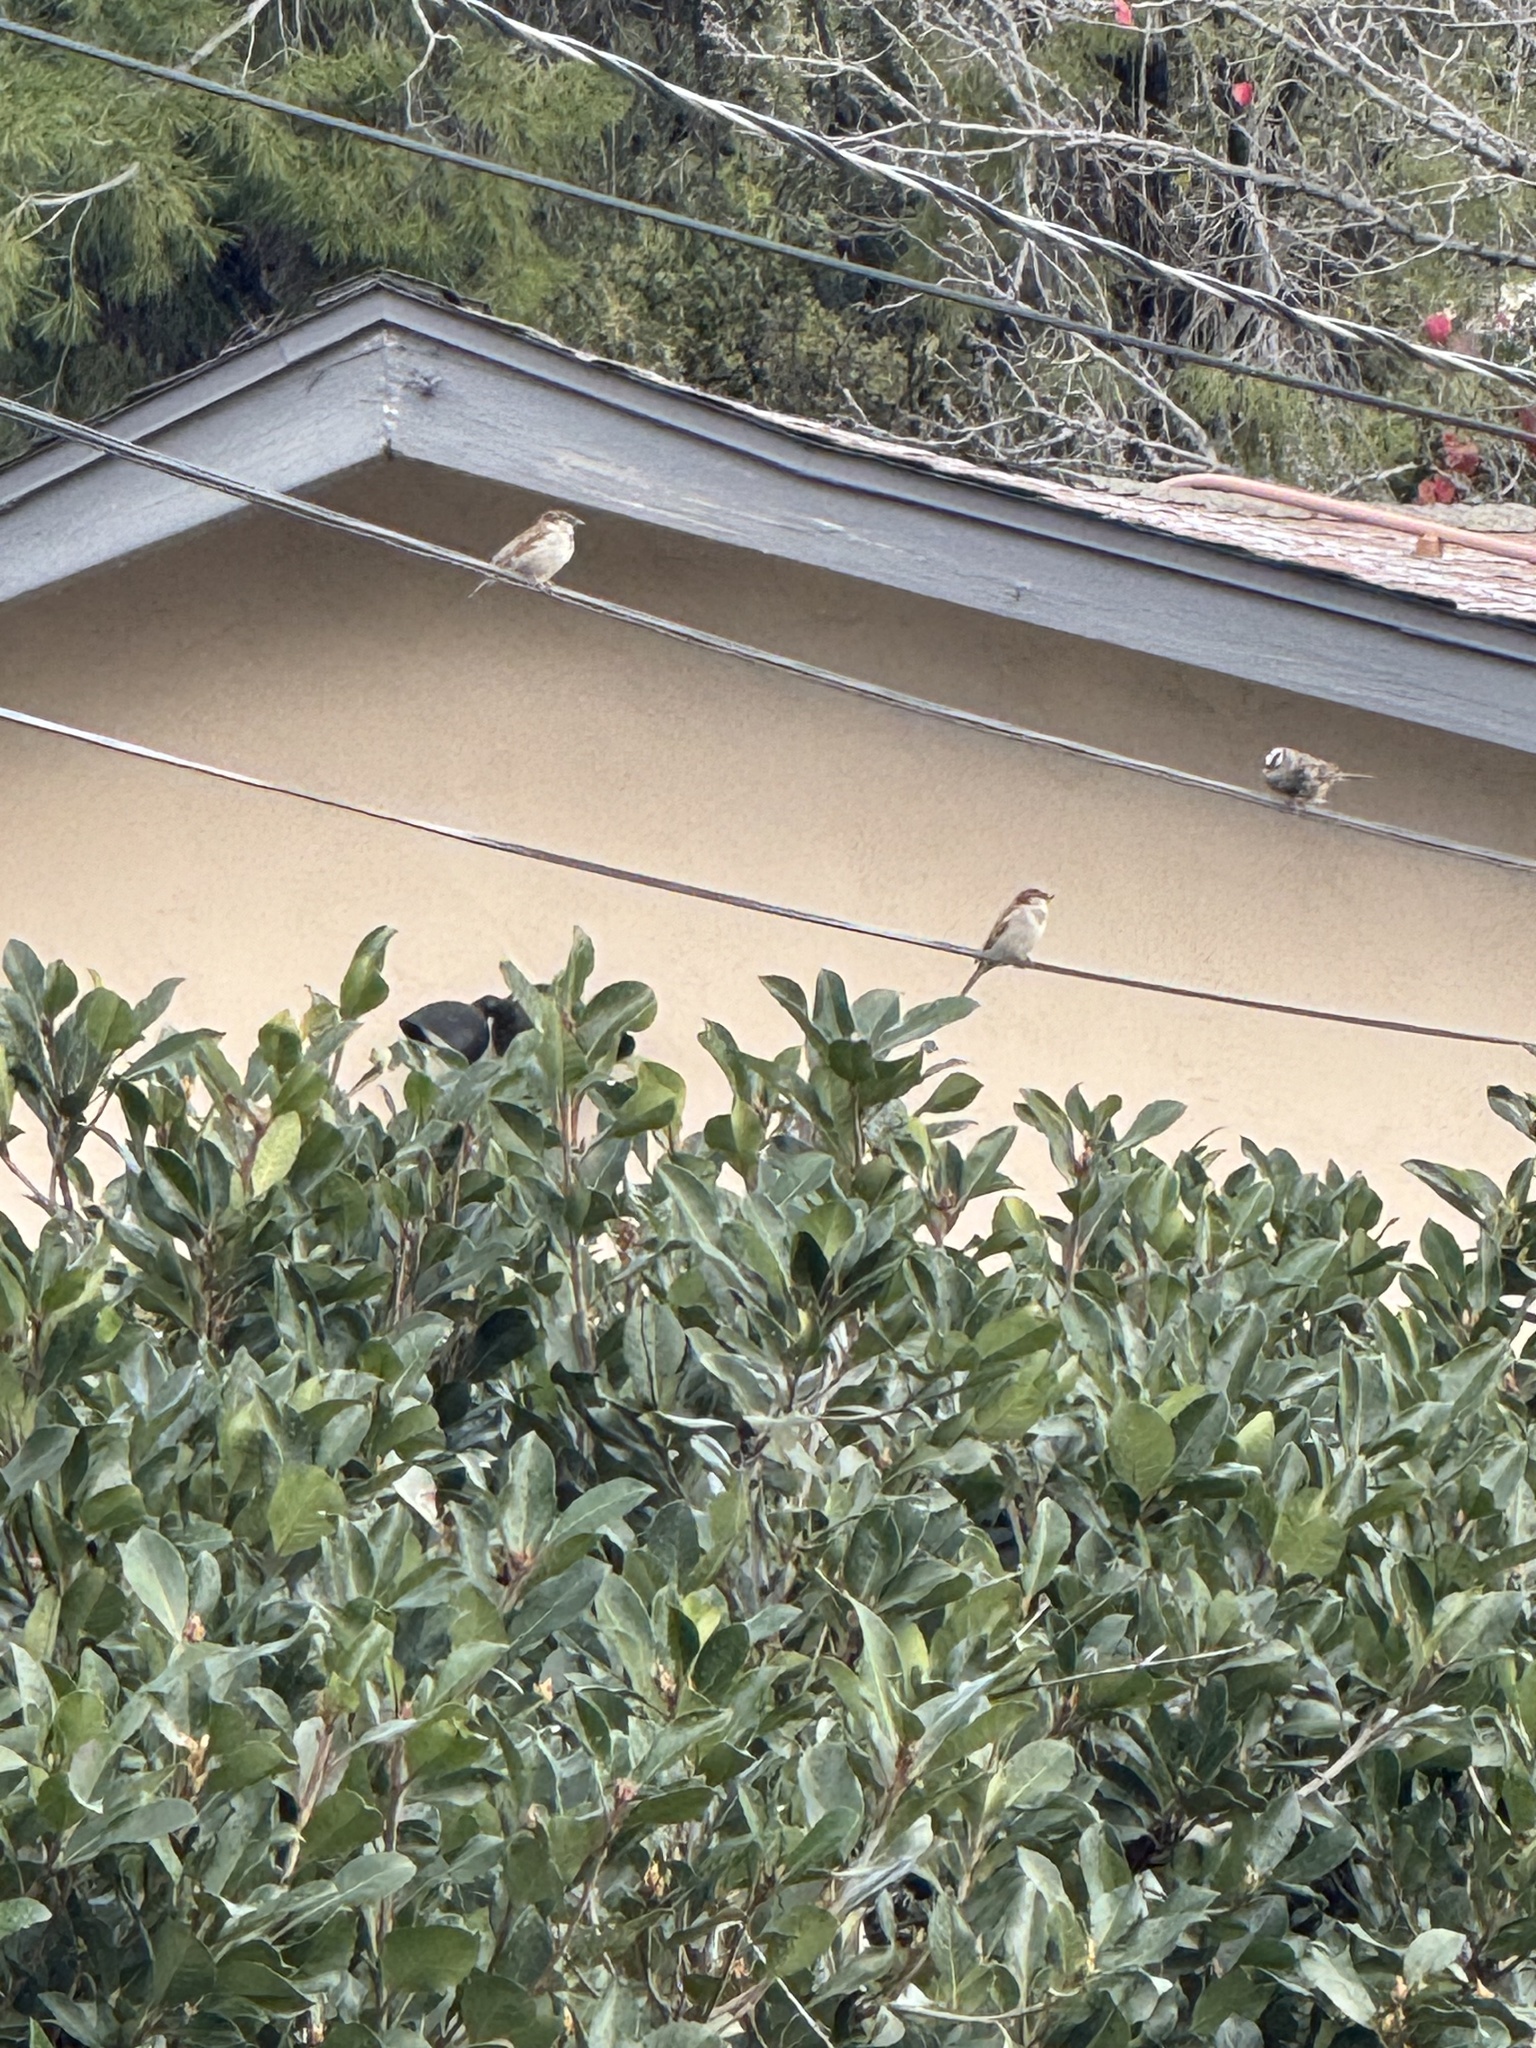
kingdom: Animalia
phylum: Chordata
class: Aves
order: Passeriformes
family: Passeridae
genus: Passer
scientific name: Passer domesticus
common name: House sparrow
